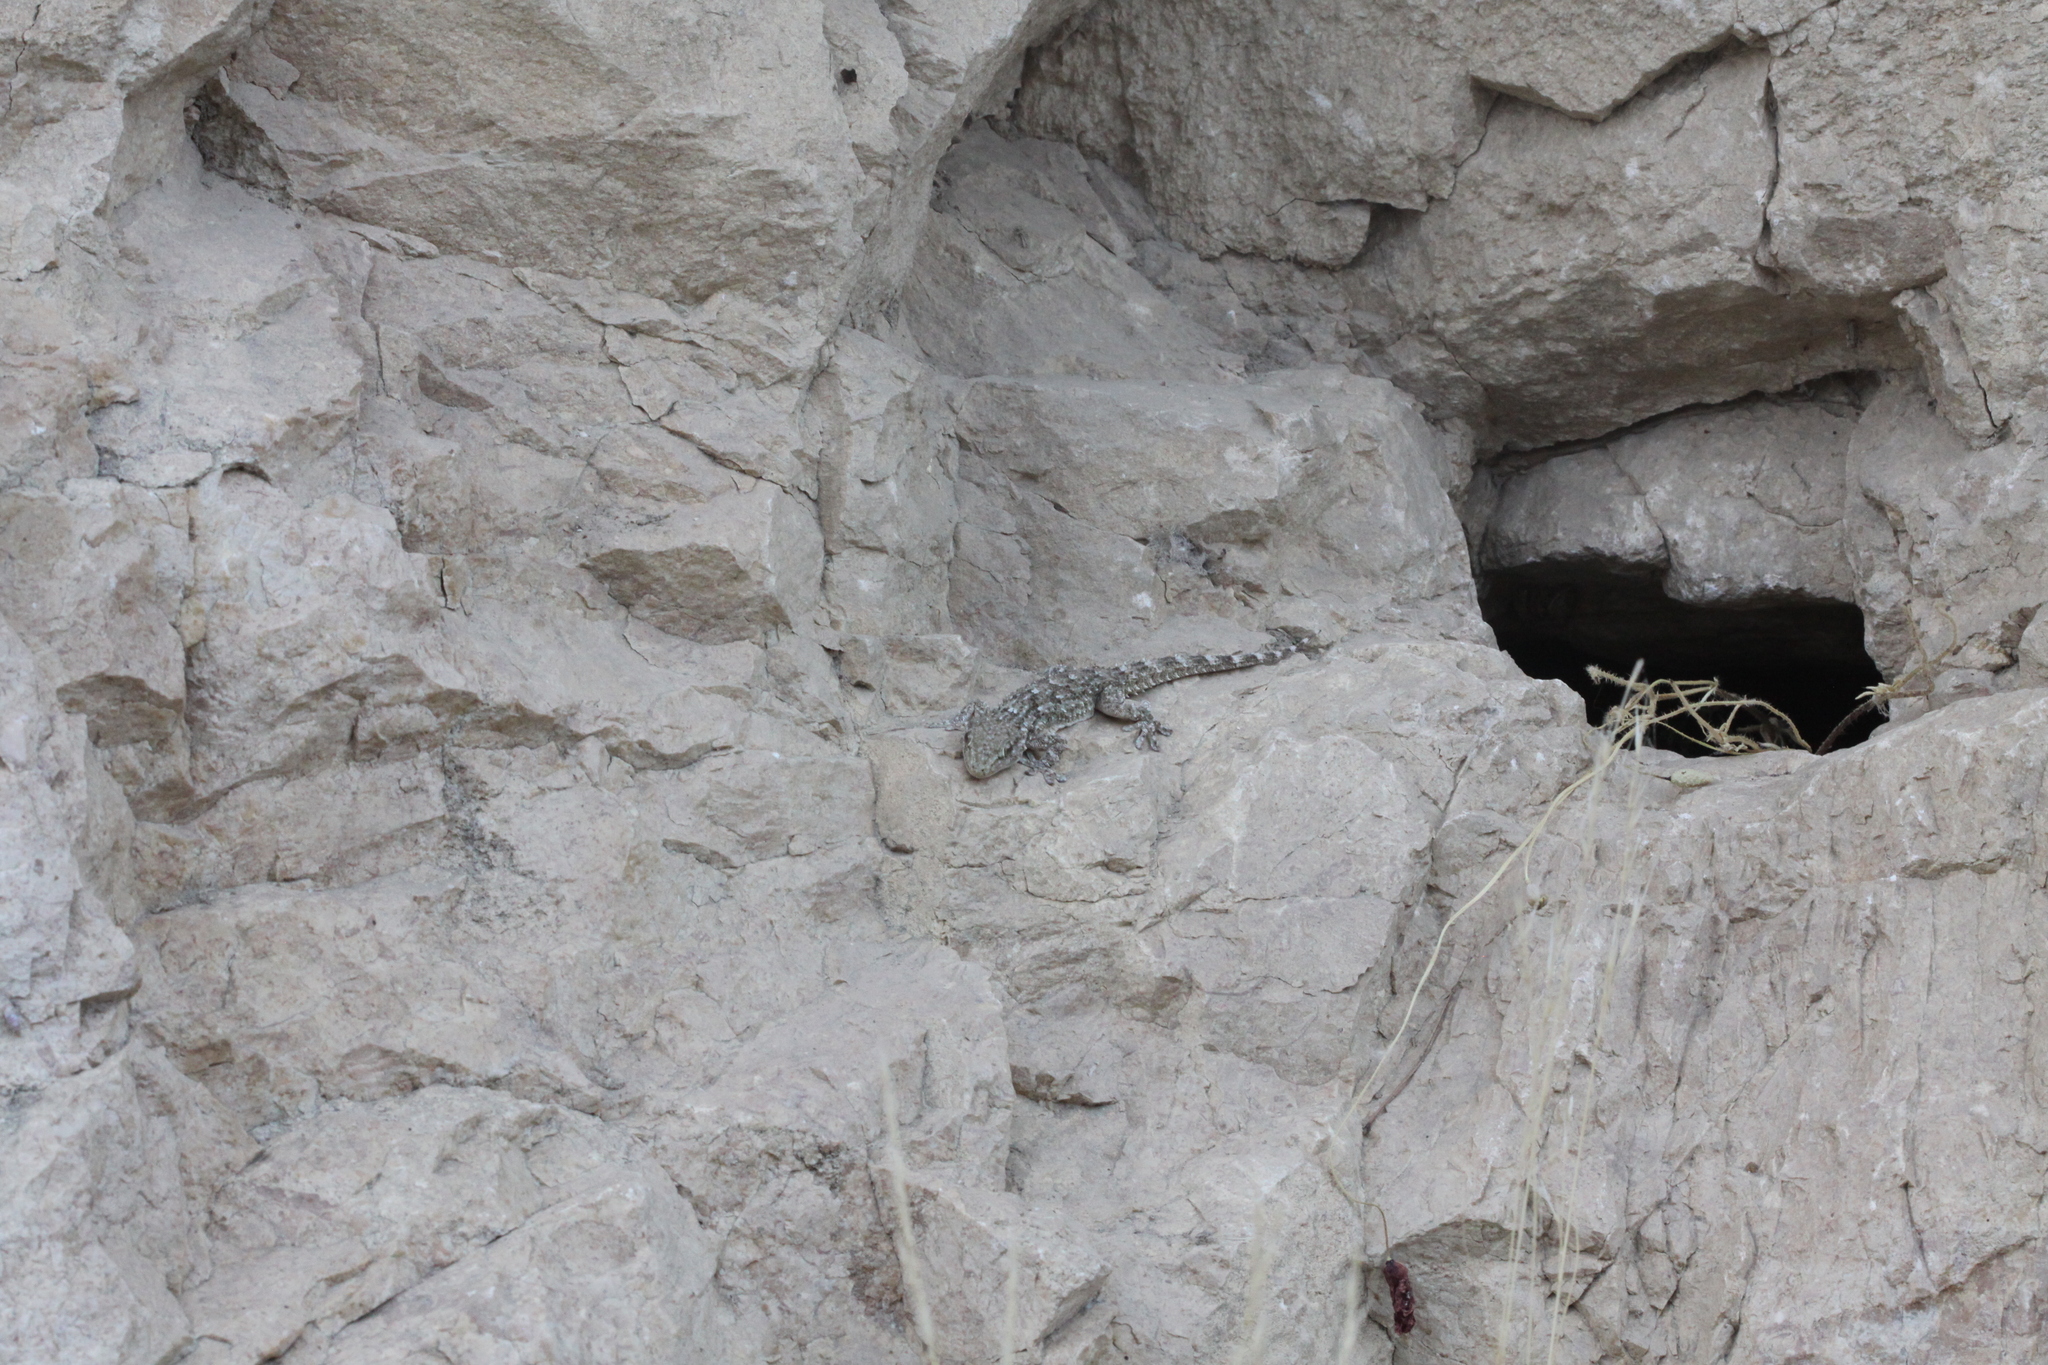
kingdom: Animalia
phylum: Chordata
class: Squamata
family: Phyllodactylidae
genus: Tarentola
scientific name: Tarentola mauritanica
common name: Moorish gecko
